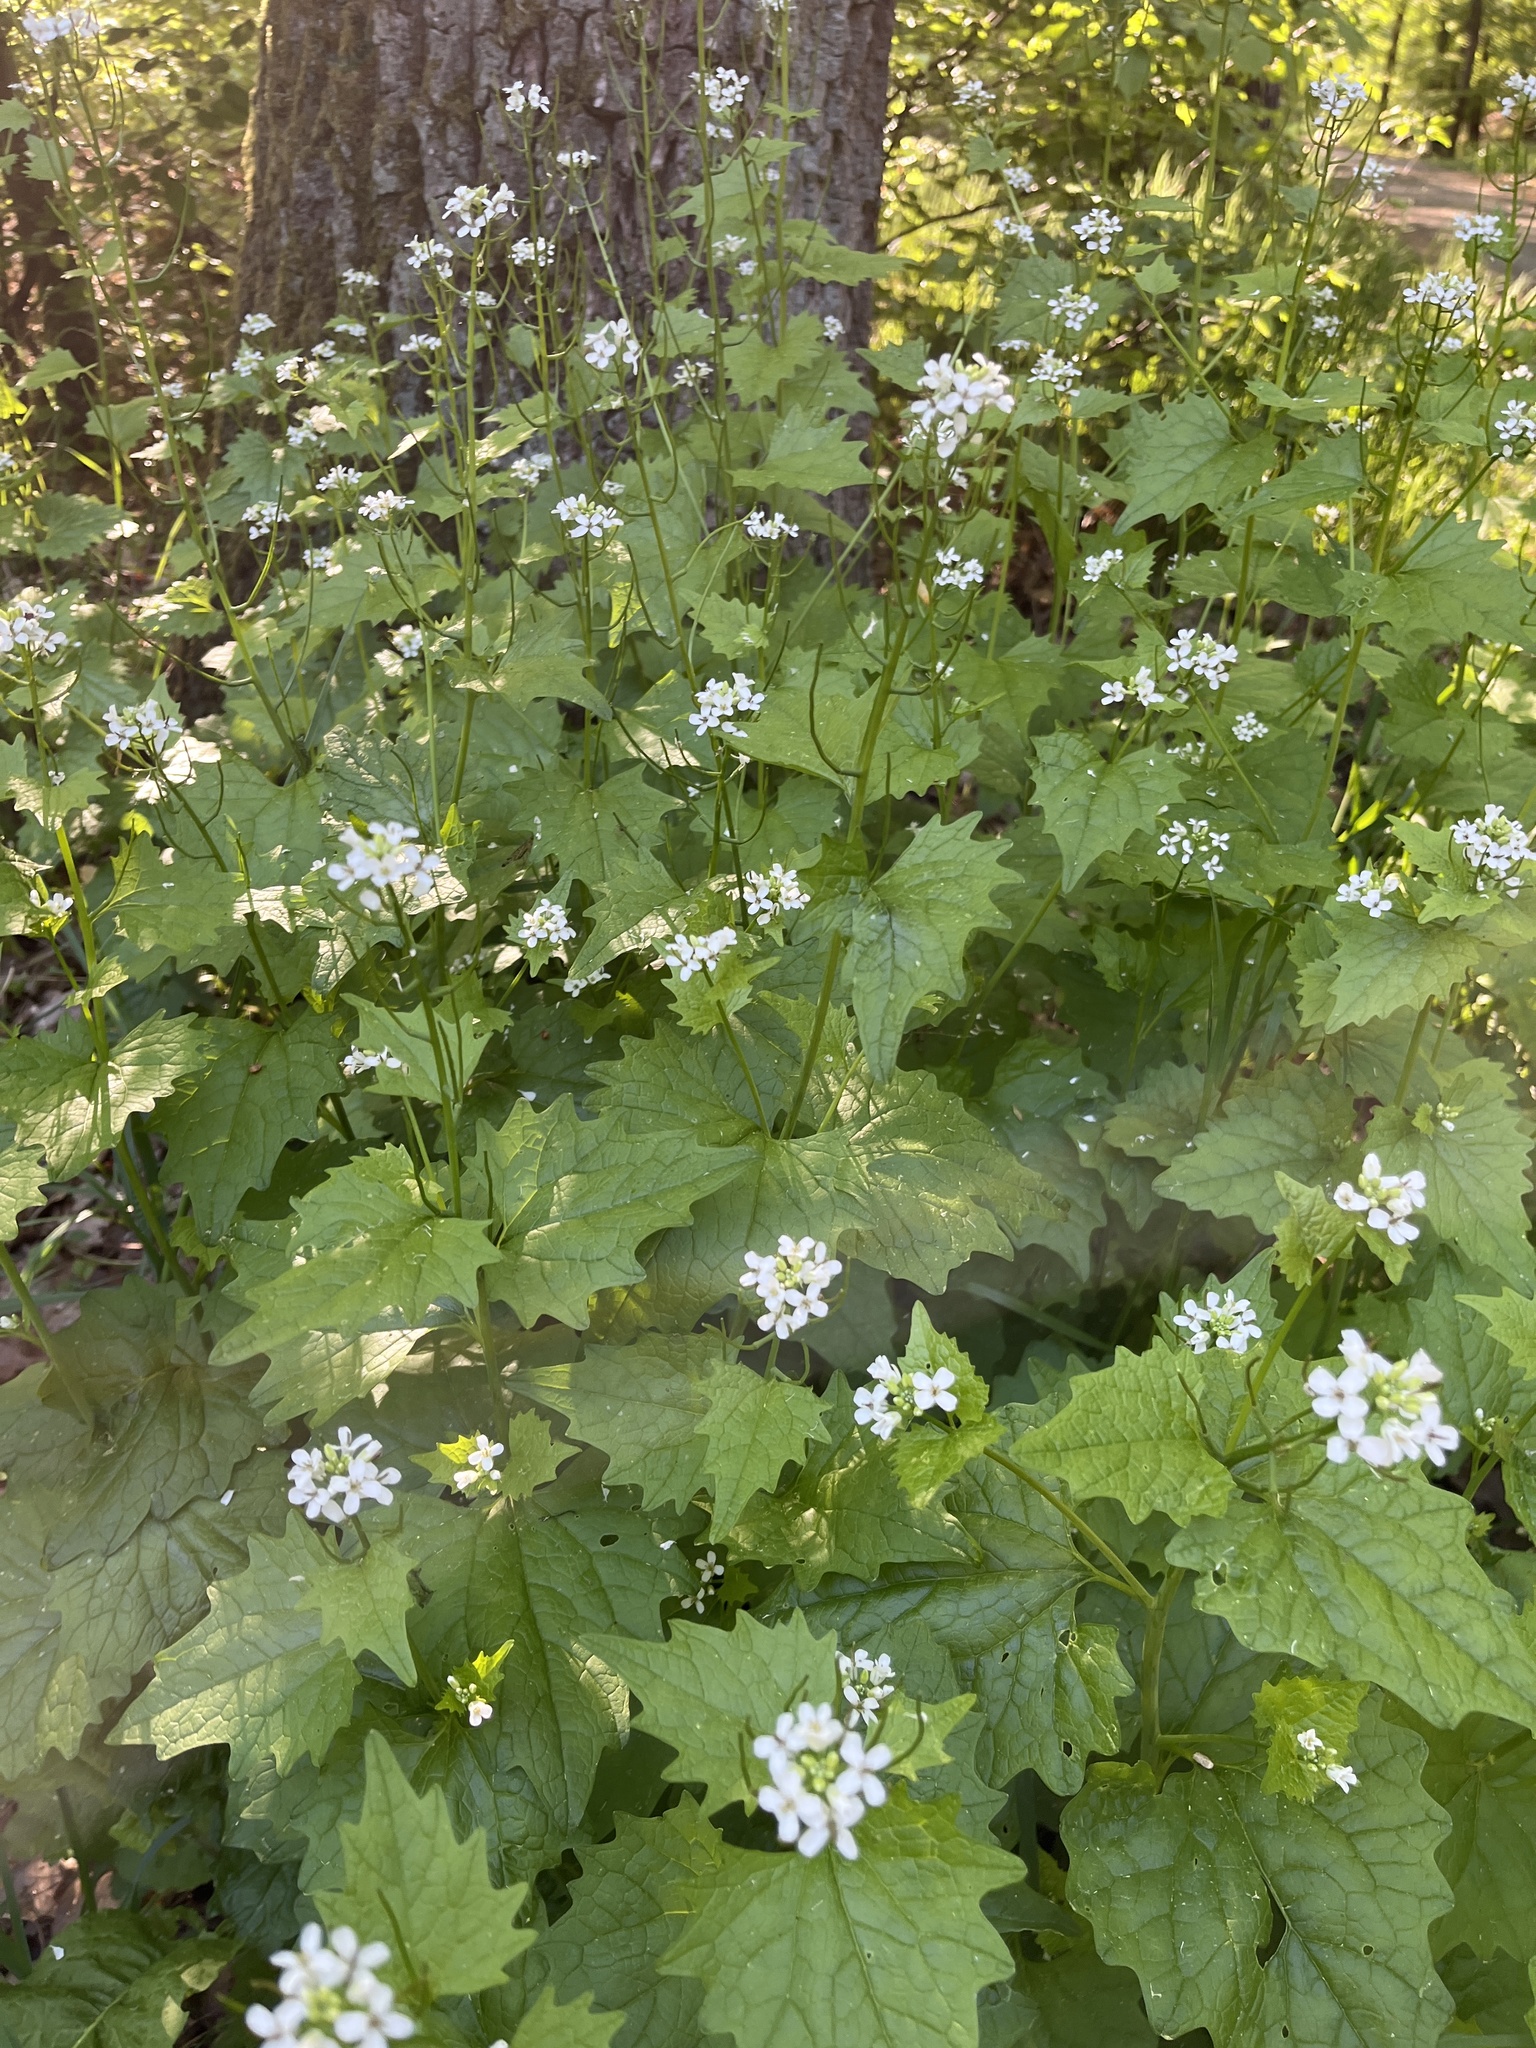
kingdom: Plantae
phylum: Tracheophyta
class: Magnoliopsida
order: Brassicales
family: Brassicaceae
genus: Alliaria
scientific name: Alliaria petiolata
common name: Garlic mustard
